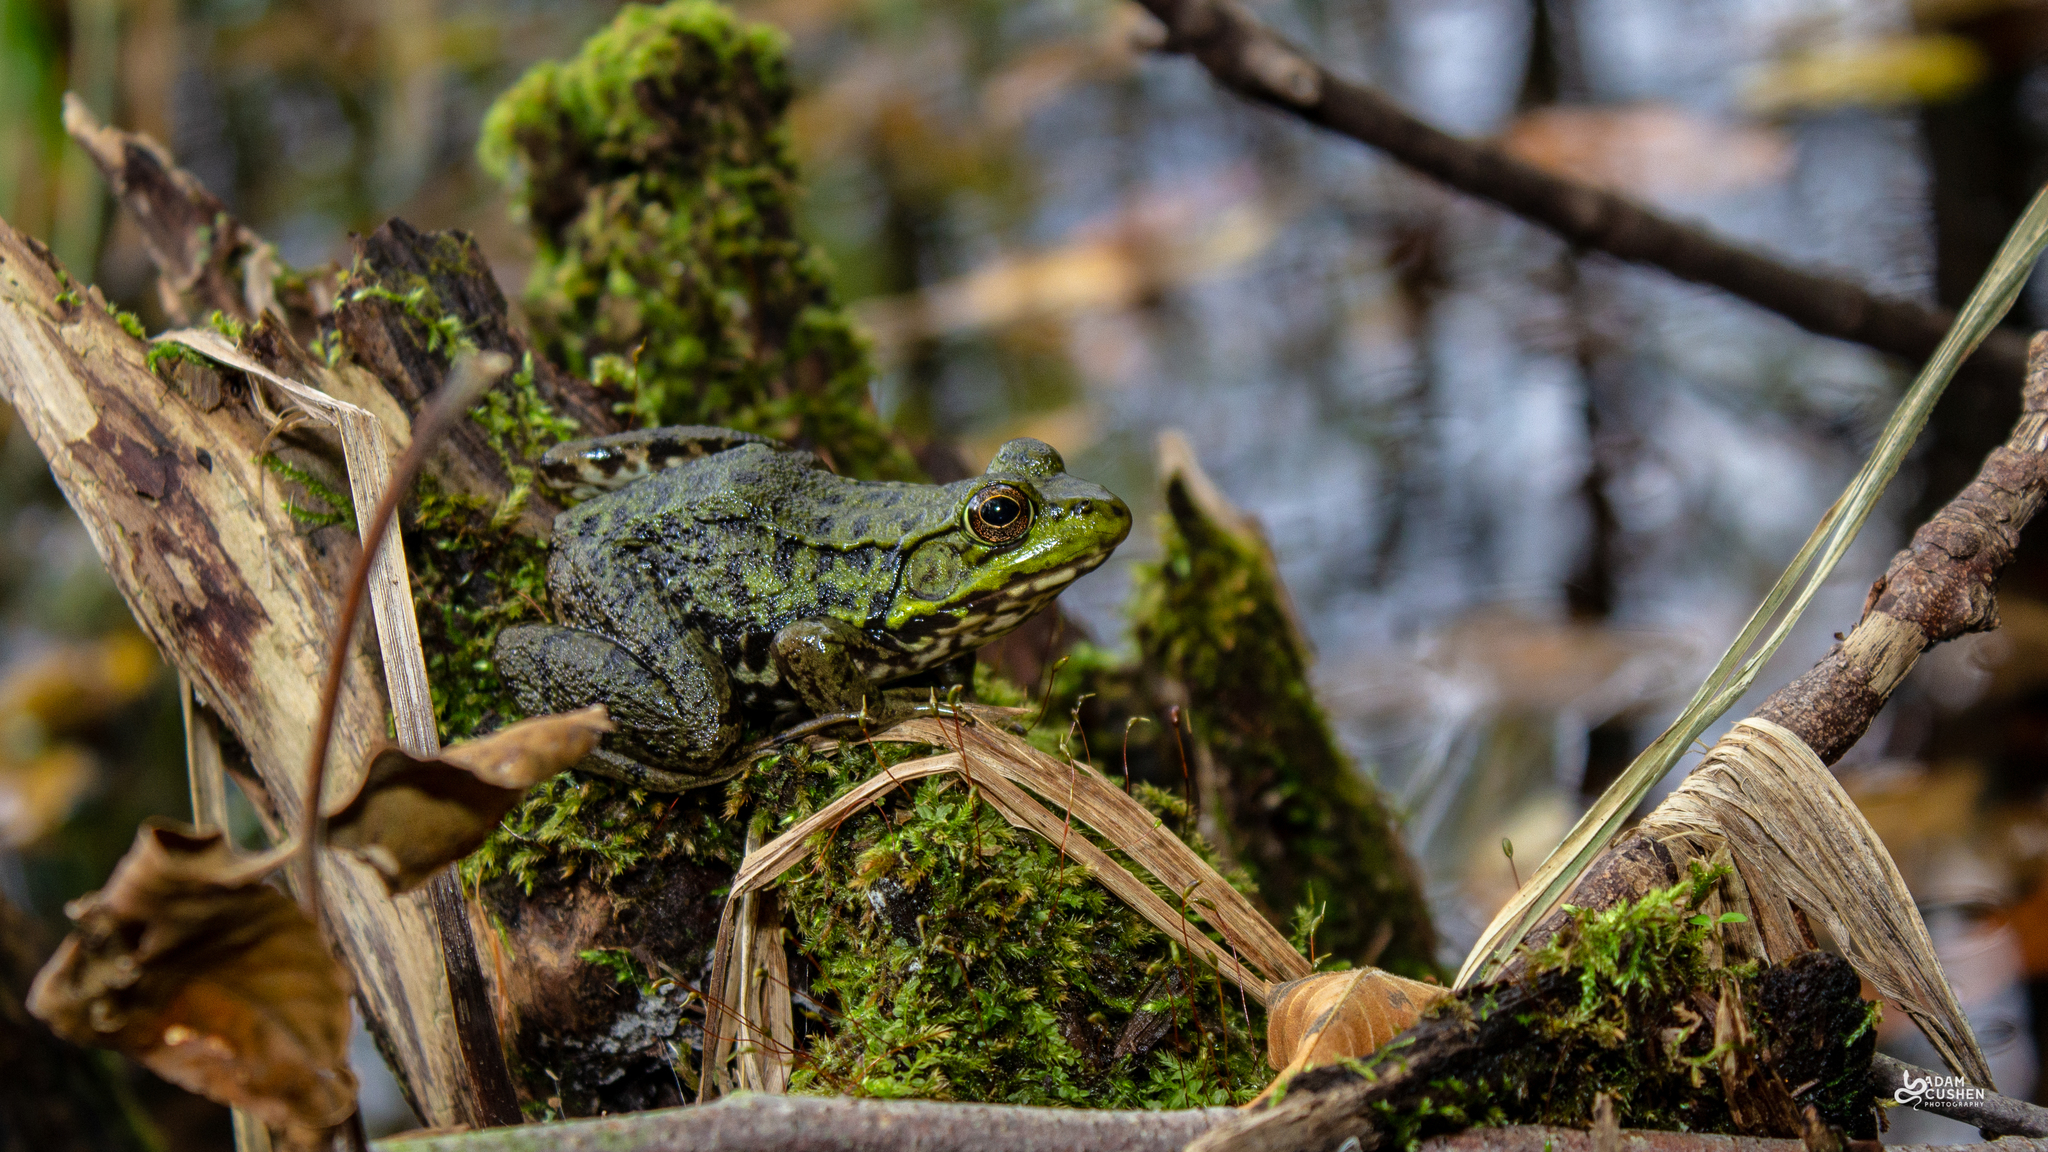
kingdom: Animalia
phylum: Chordata
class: Amphibia
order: Anura
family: Ranidae
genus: Lithobates
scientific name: Lithobates clamitans
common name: Green frog
